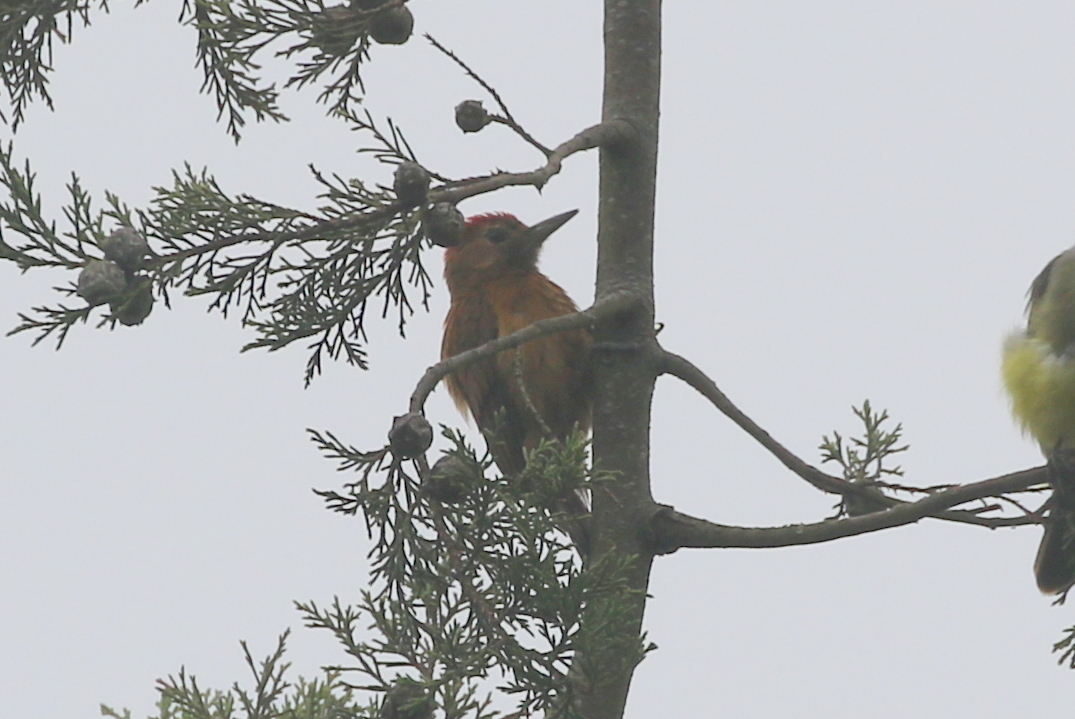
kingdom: Animalia
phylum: Chordata
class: Aves
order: Piciformes
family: Picidae
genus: Leuconotopicus
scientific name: Leuconotopicus fumigatus
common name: Smoky-brown woodpecker
